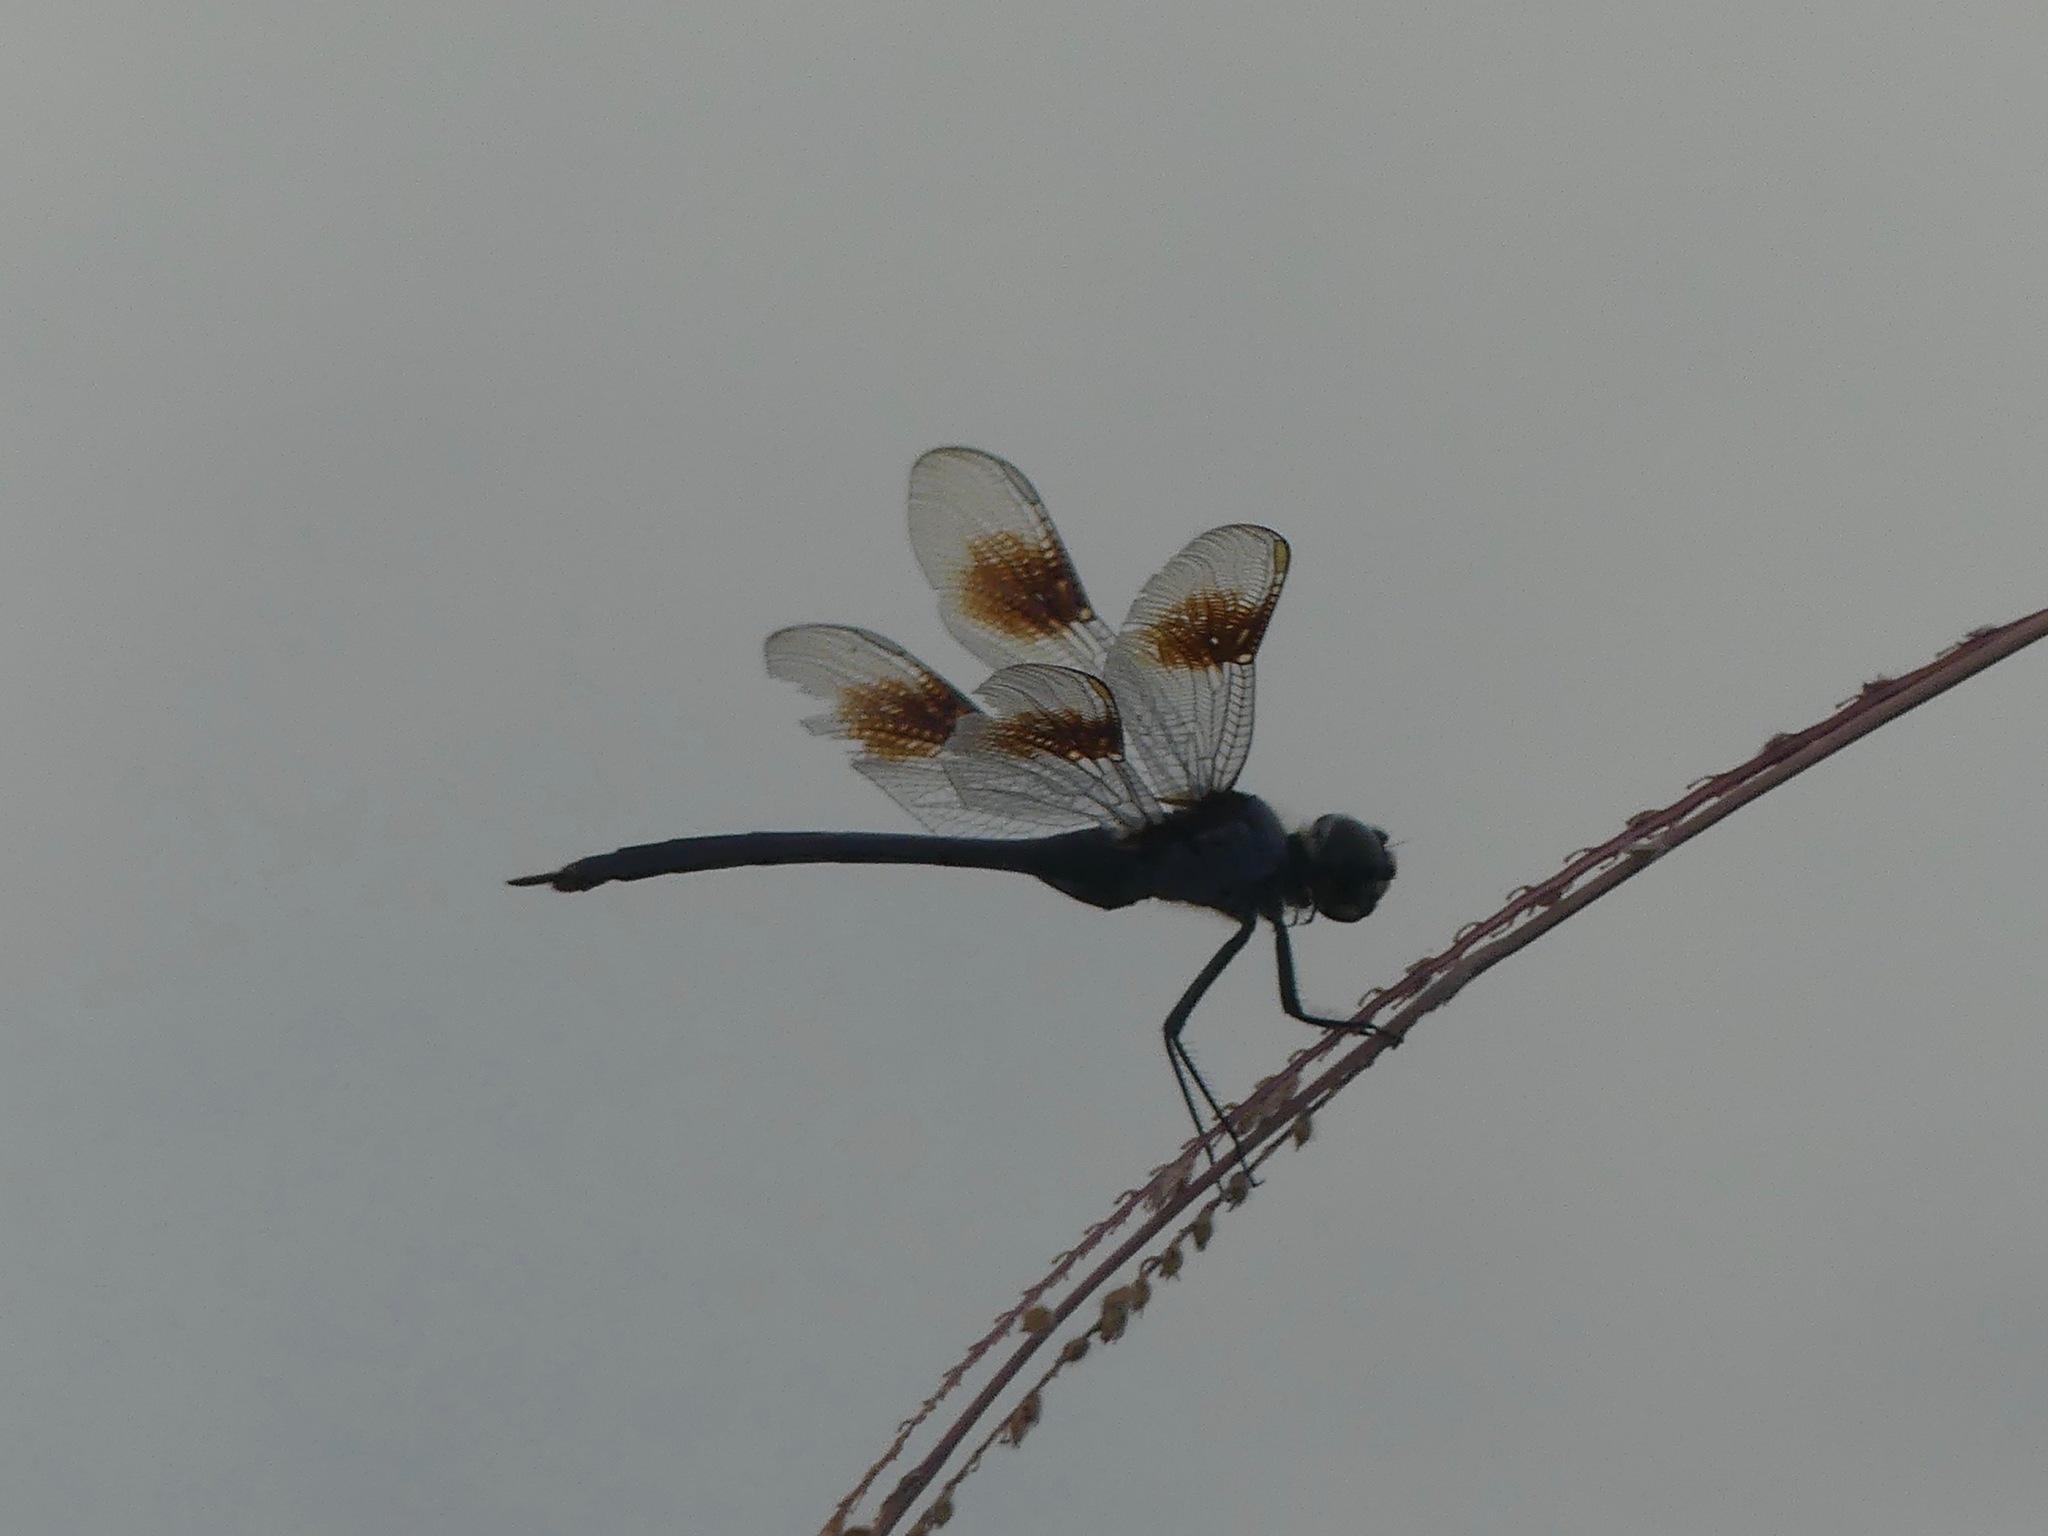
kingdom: Animalia
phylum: Arthropoda
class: Insecta
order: Odonata
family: Libellulidae
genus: Brachymesia
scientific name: Brachymesia gravida
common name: Four-spotted pennant
